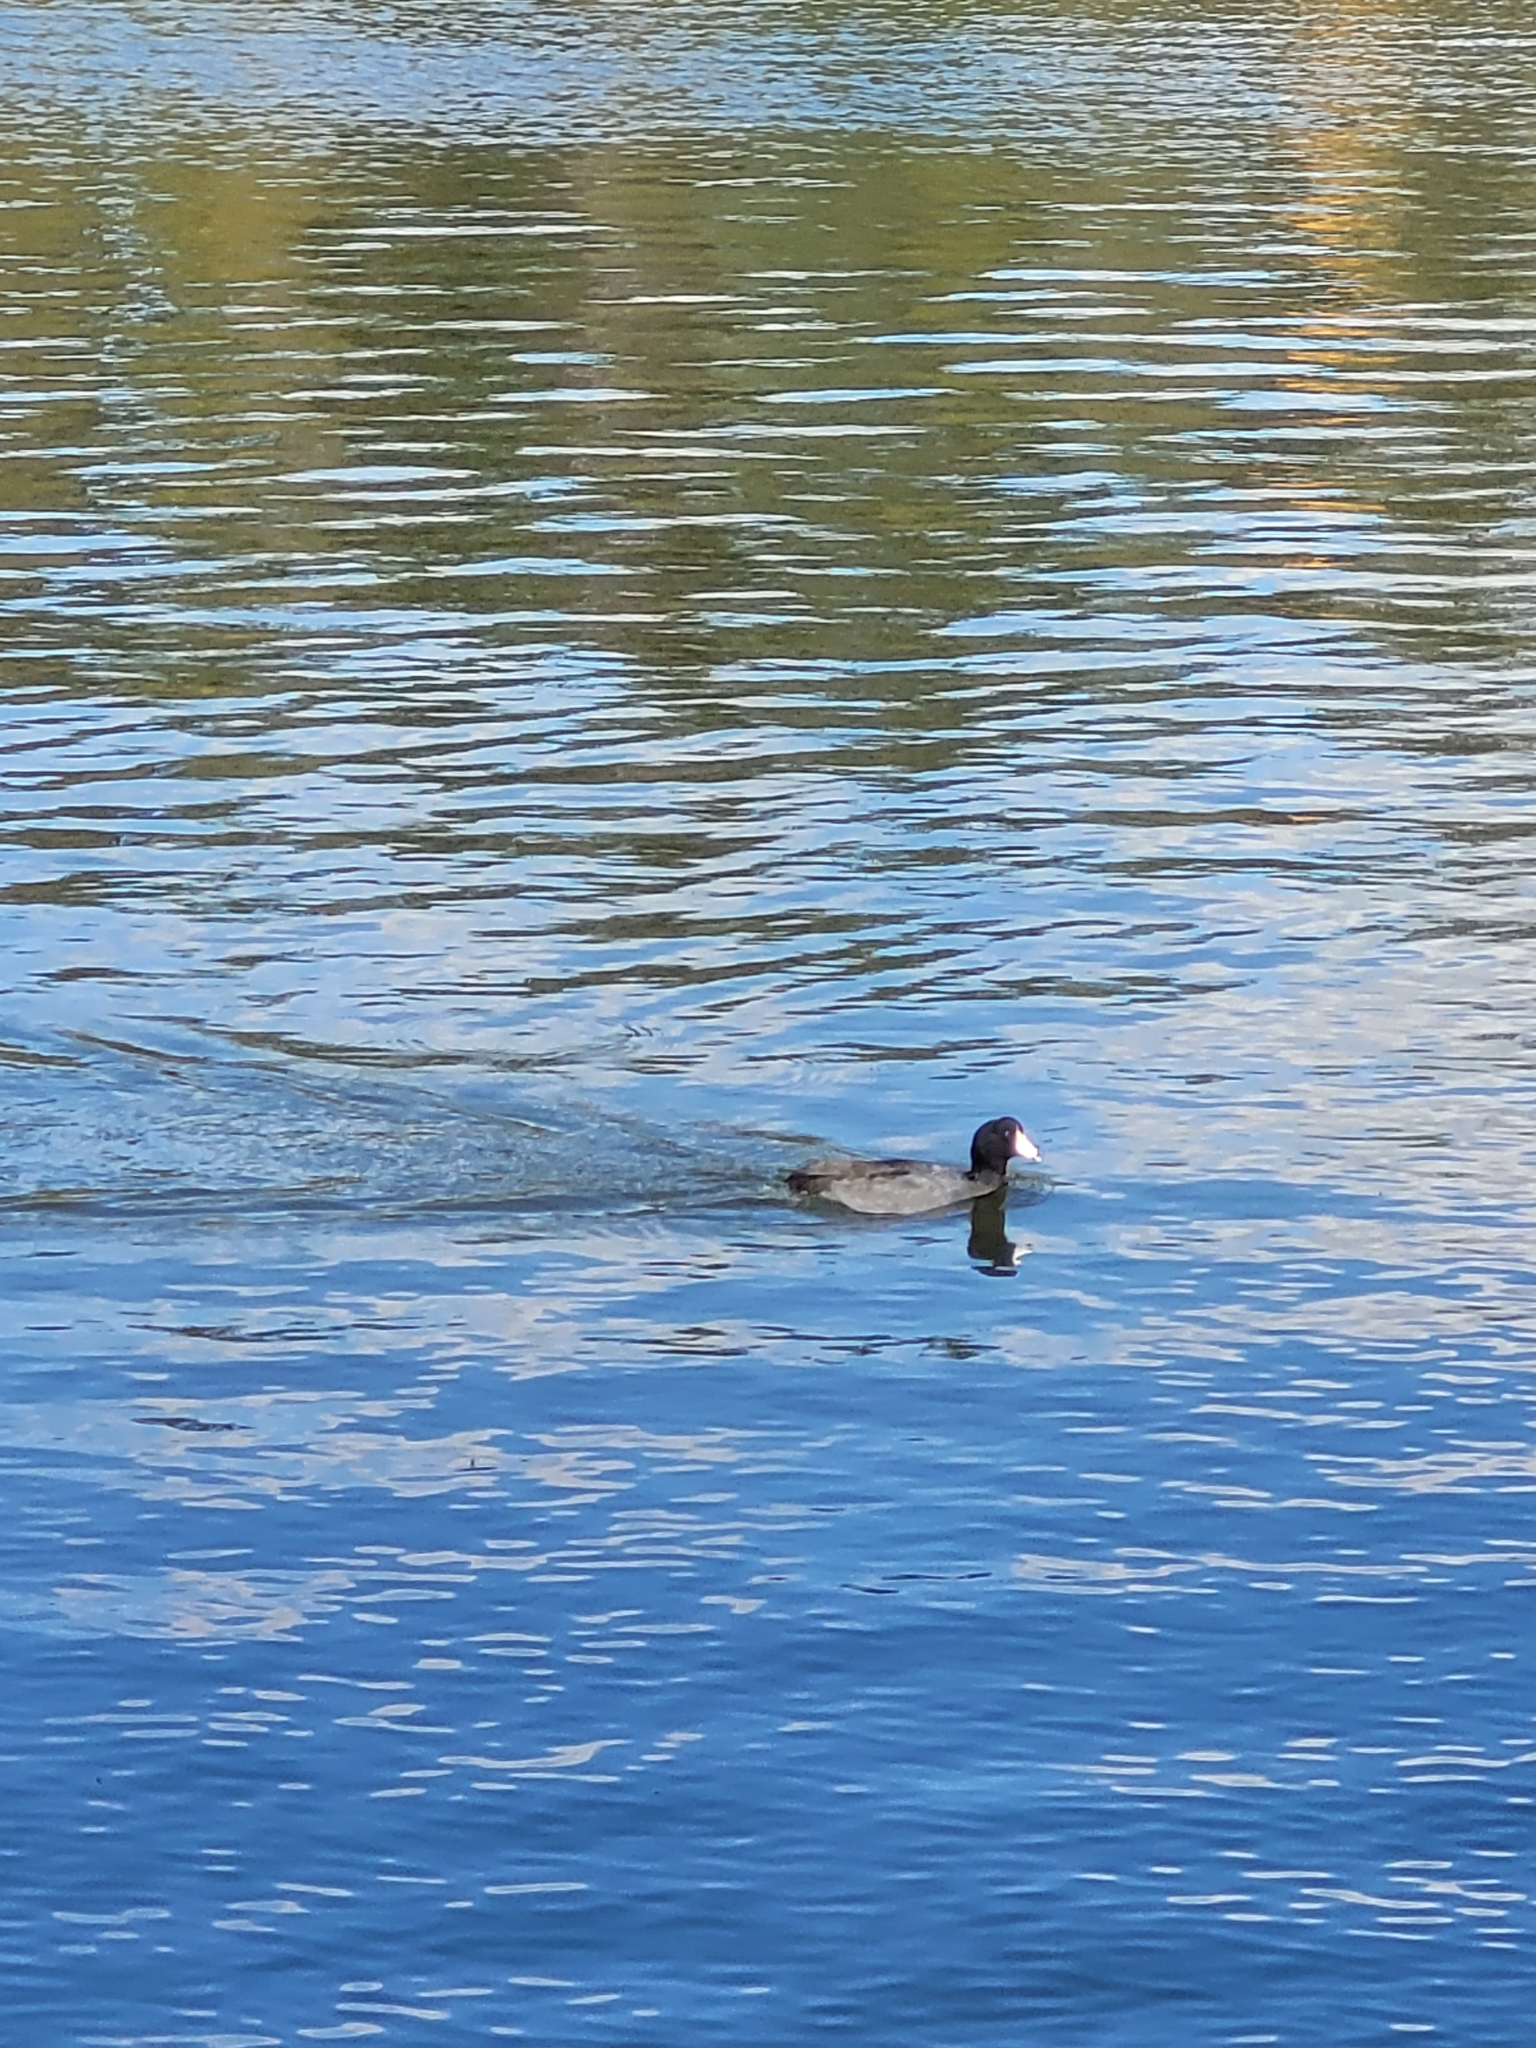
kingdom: Animalia
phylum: Chordata
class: Aves
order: Gruiformes
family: Rallidae
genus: Fulica
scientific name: Fulica americana
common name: American coot
